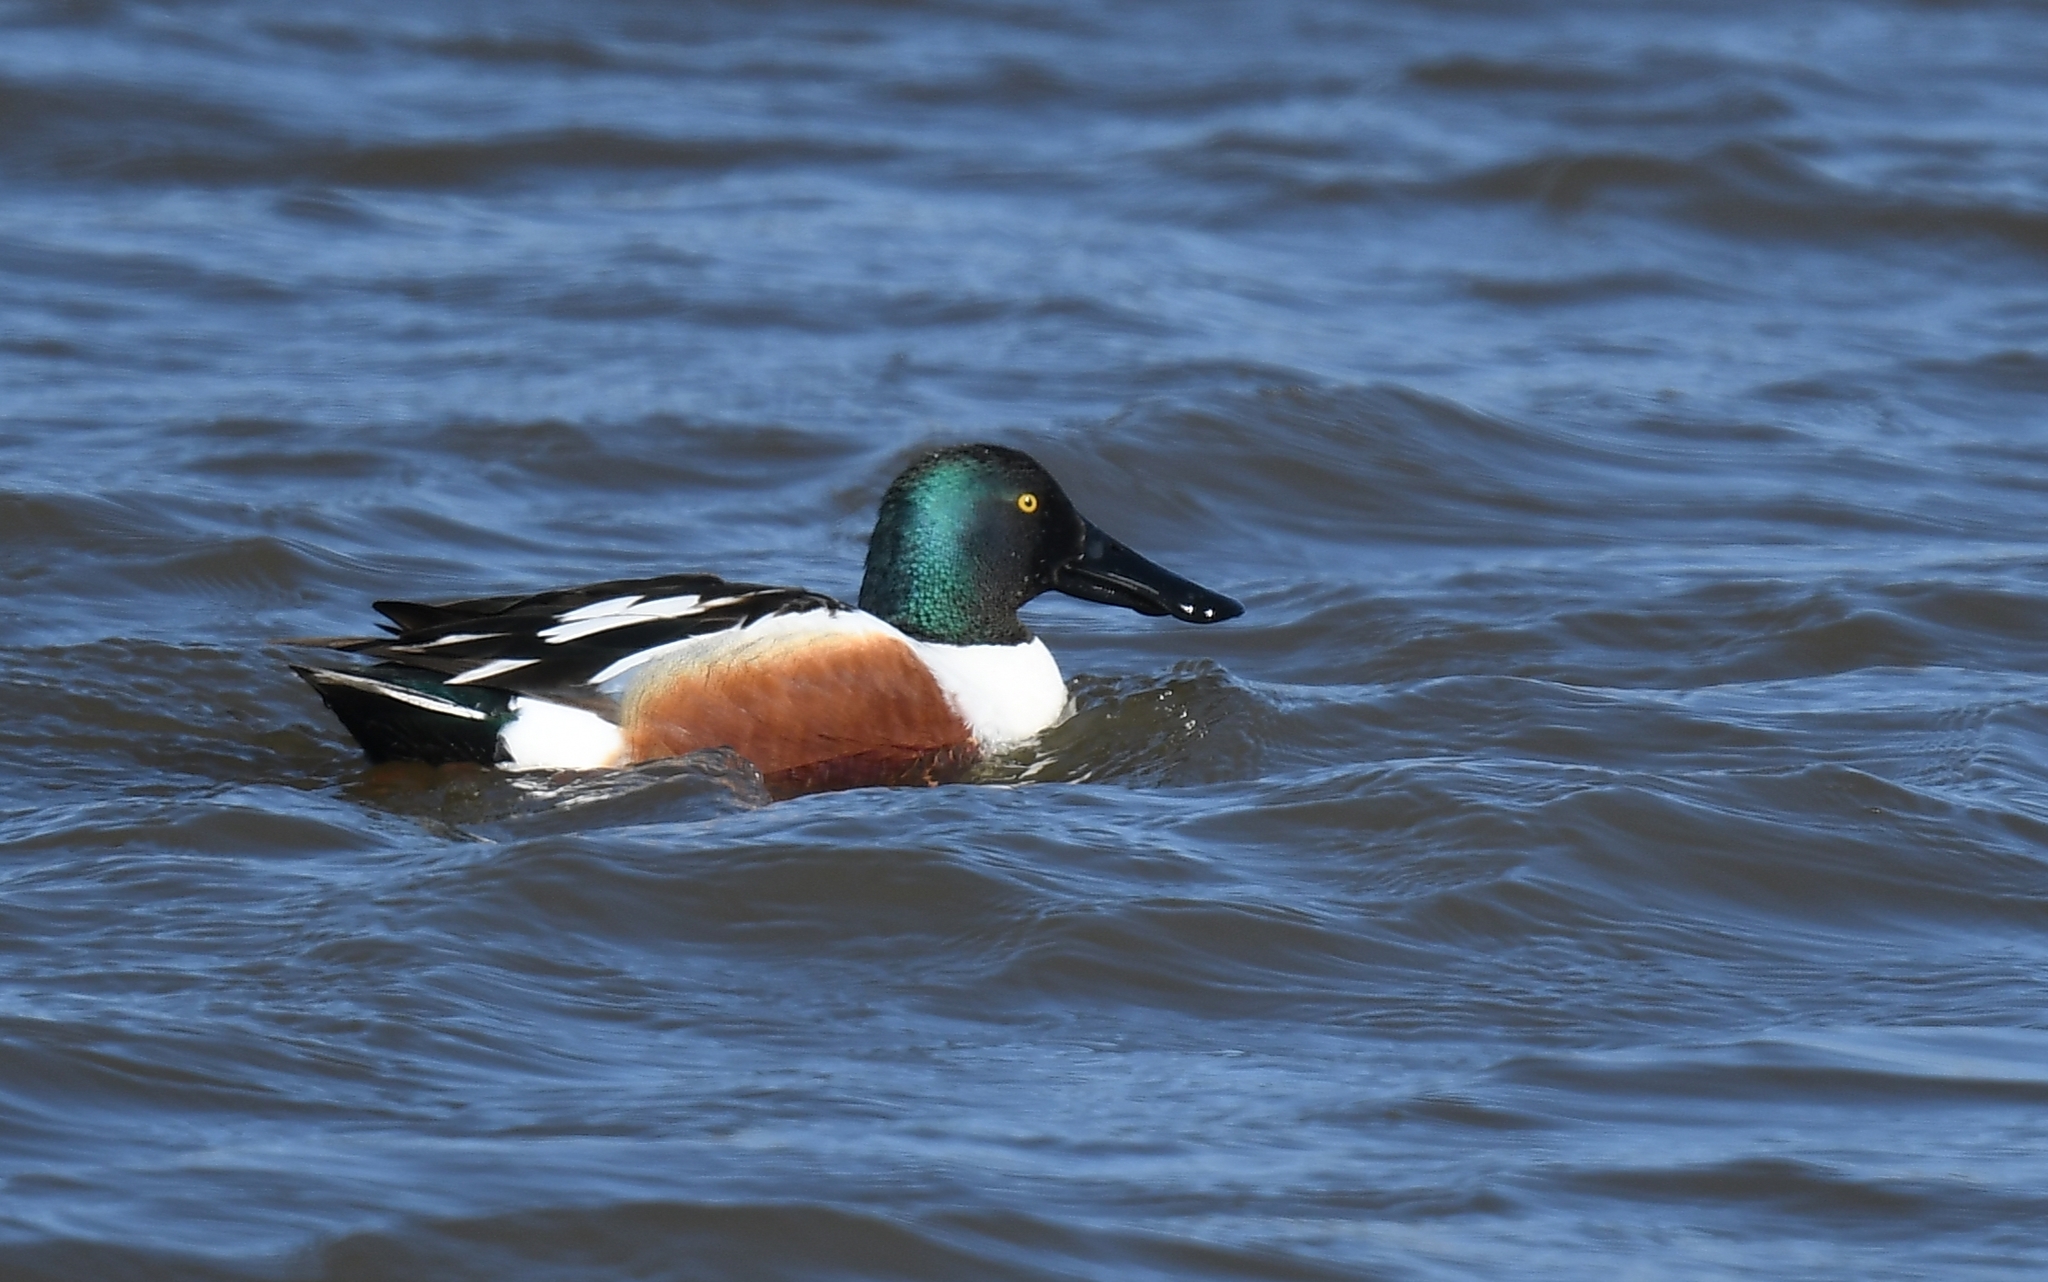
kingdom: Animalia
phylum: Chordata
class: Aves
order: Anseriformes
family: Anatidae
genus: Spatula
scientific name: Spatula clypeata
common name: Northern shoveler
